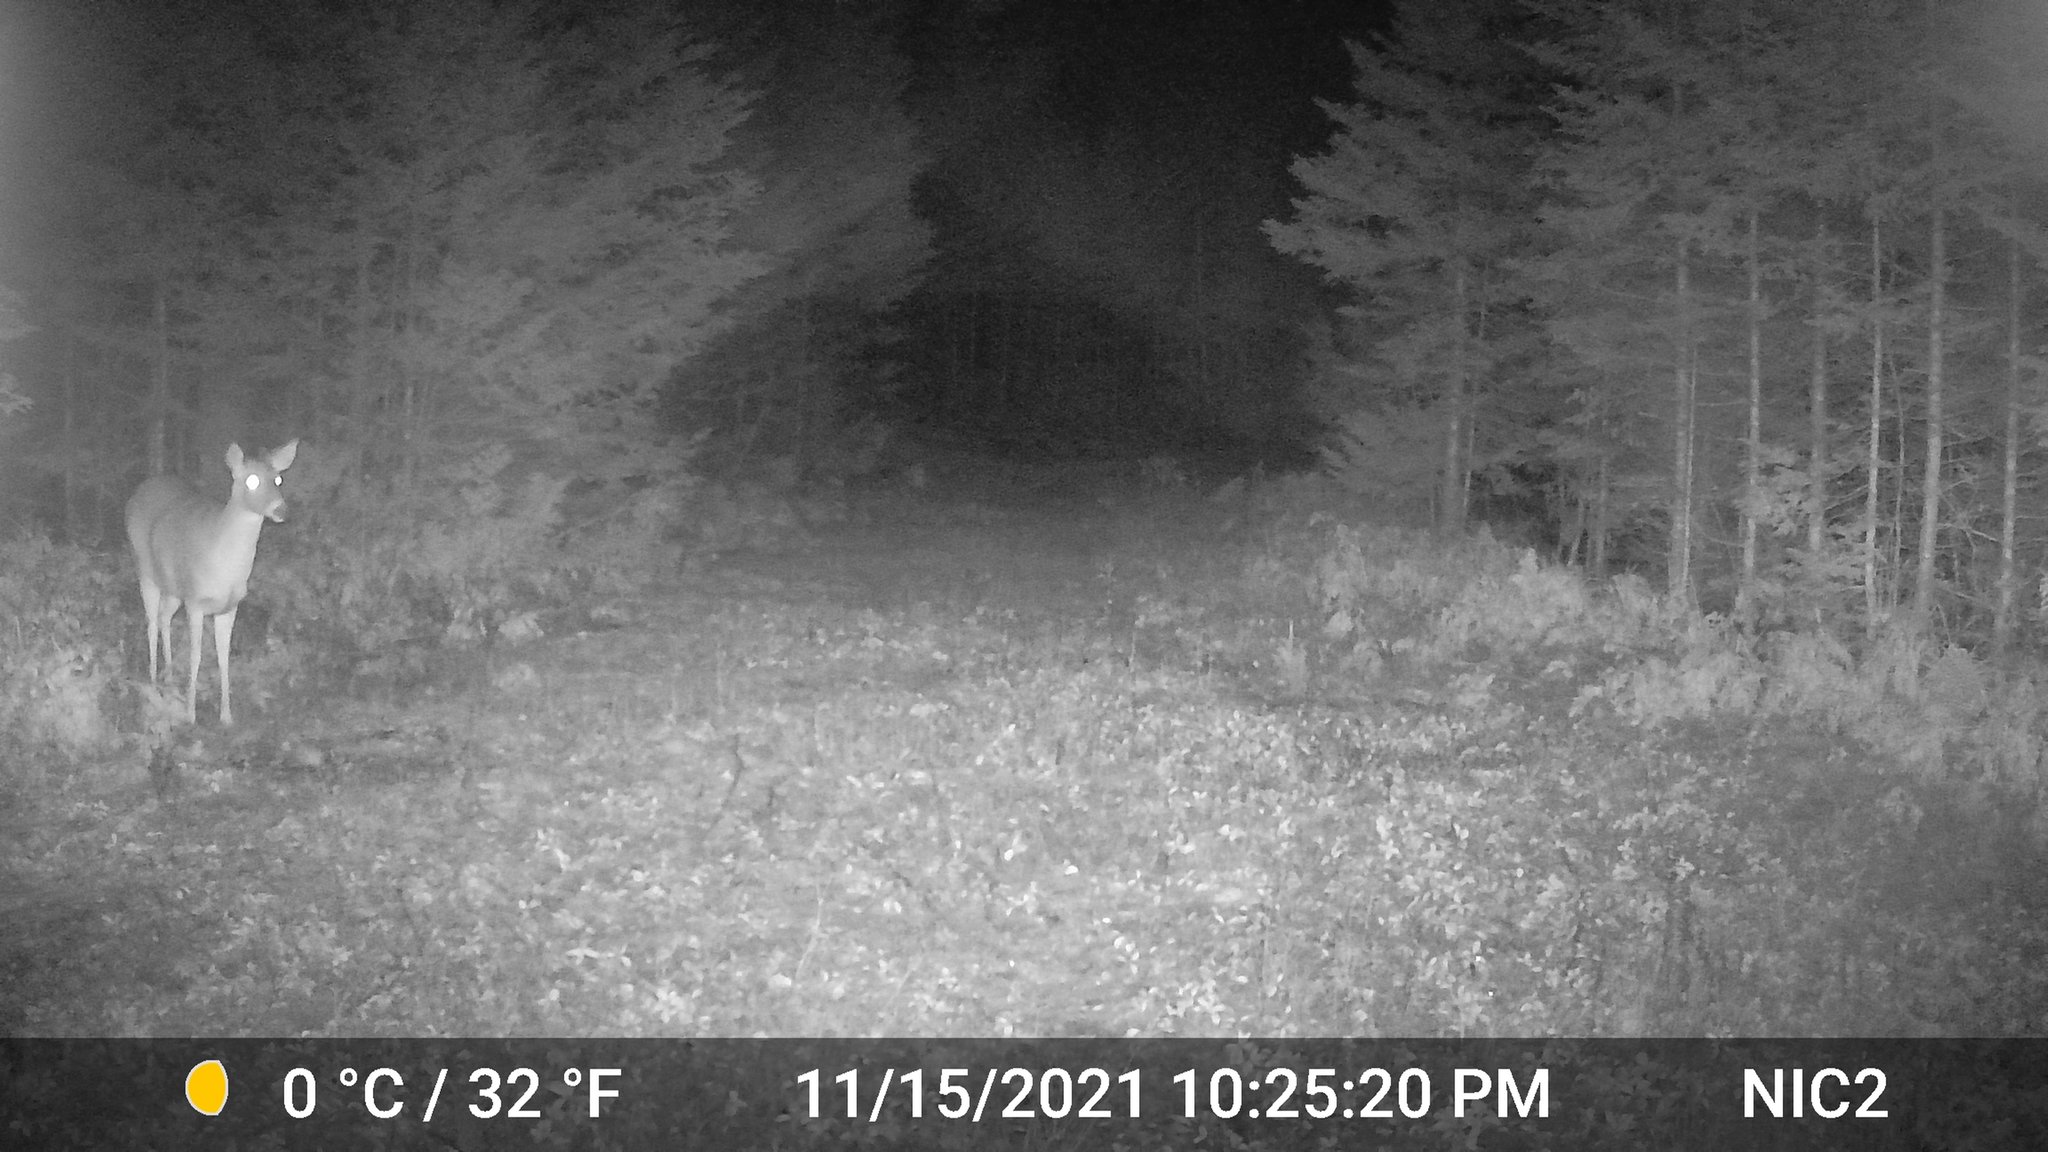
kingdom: Animalia
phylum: Chordata
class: Mammalia
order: Artiodactyla
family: Cervidae
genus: Odocoileus
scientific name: Odocoileus virginianus
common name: White-tailed deer
